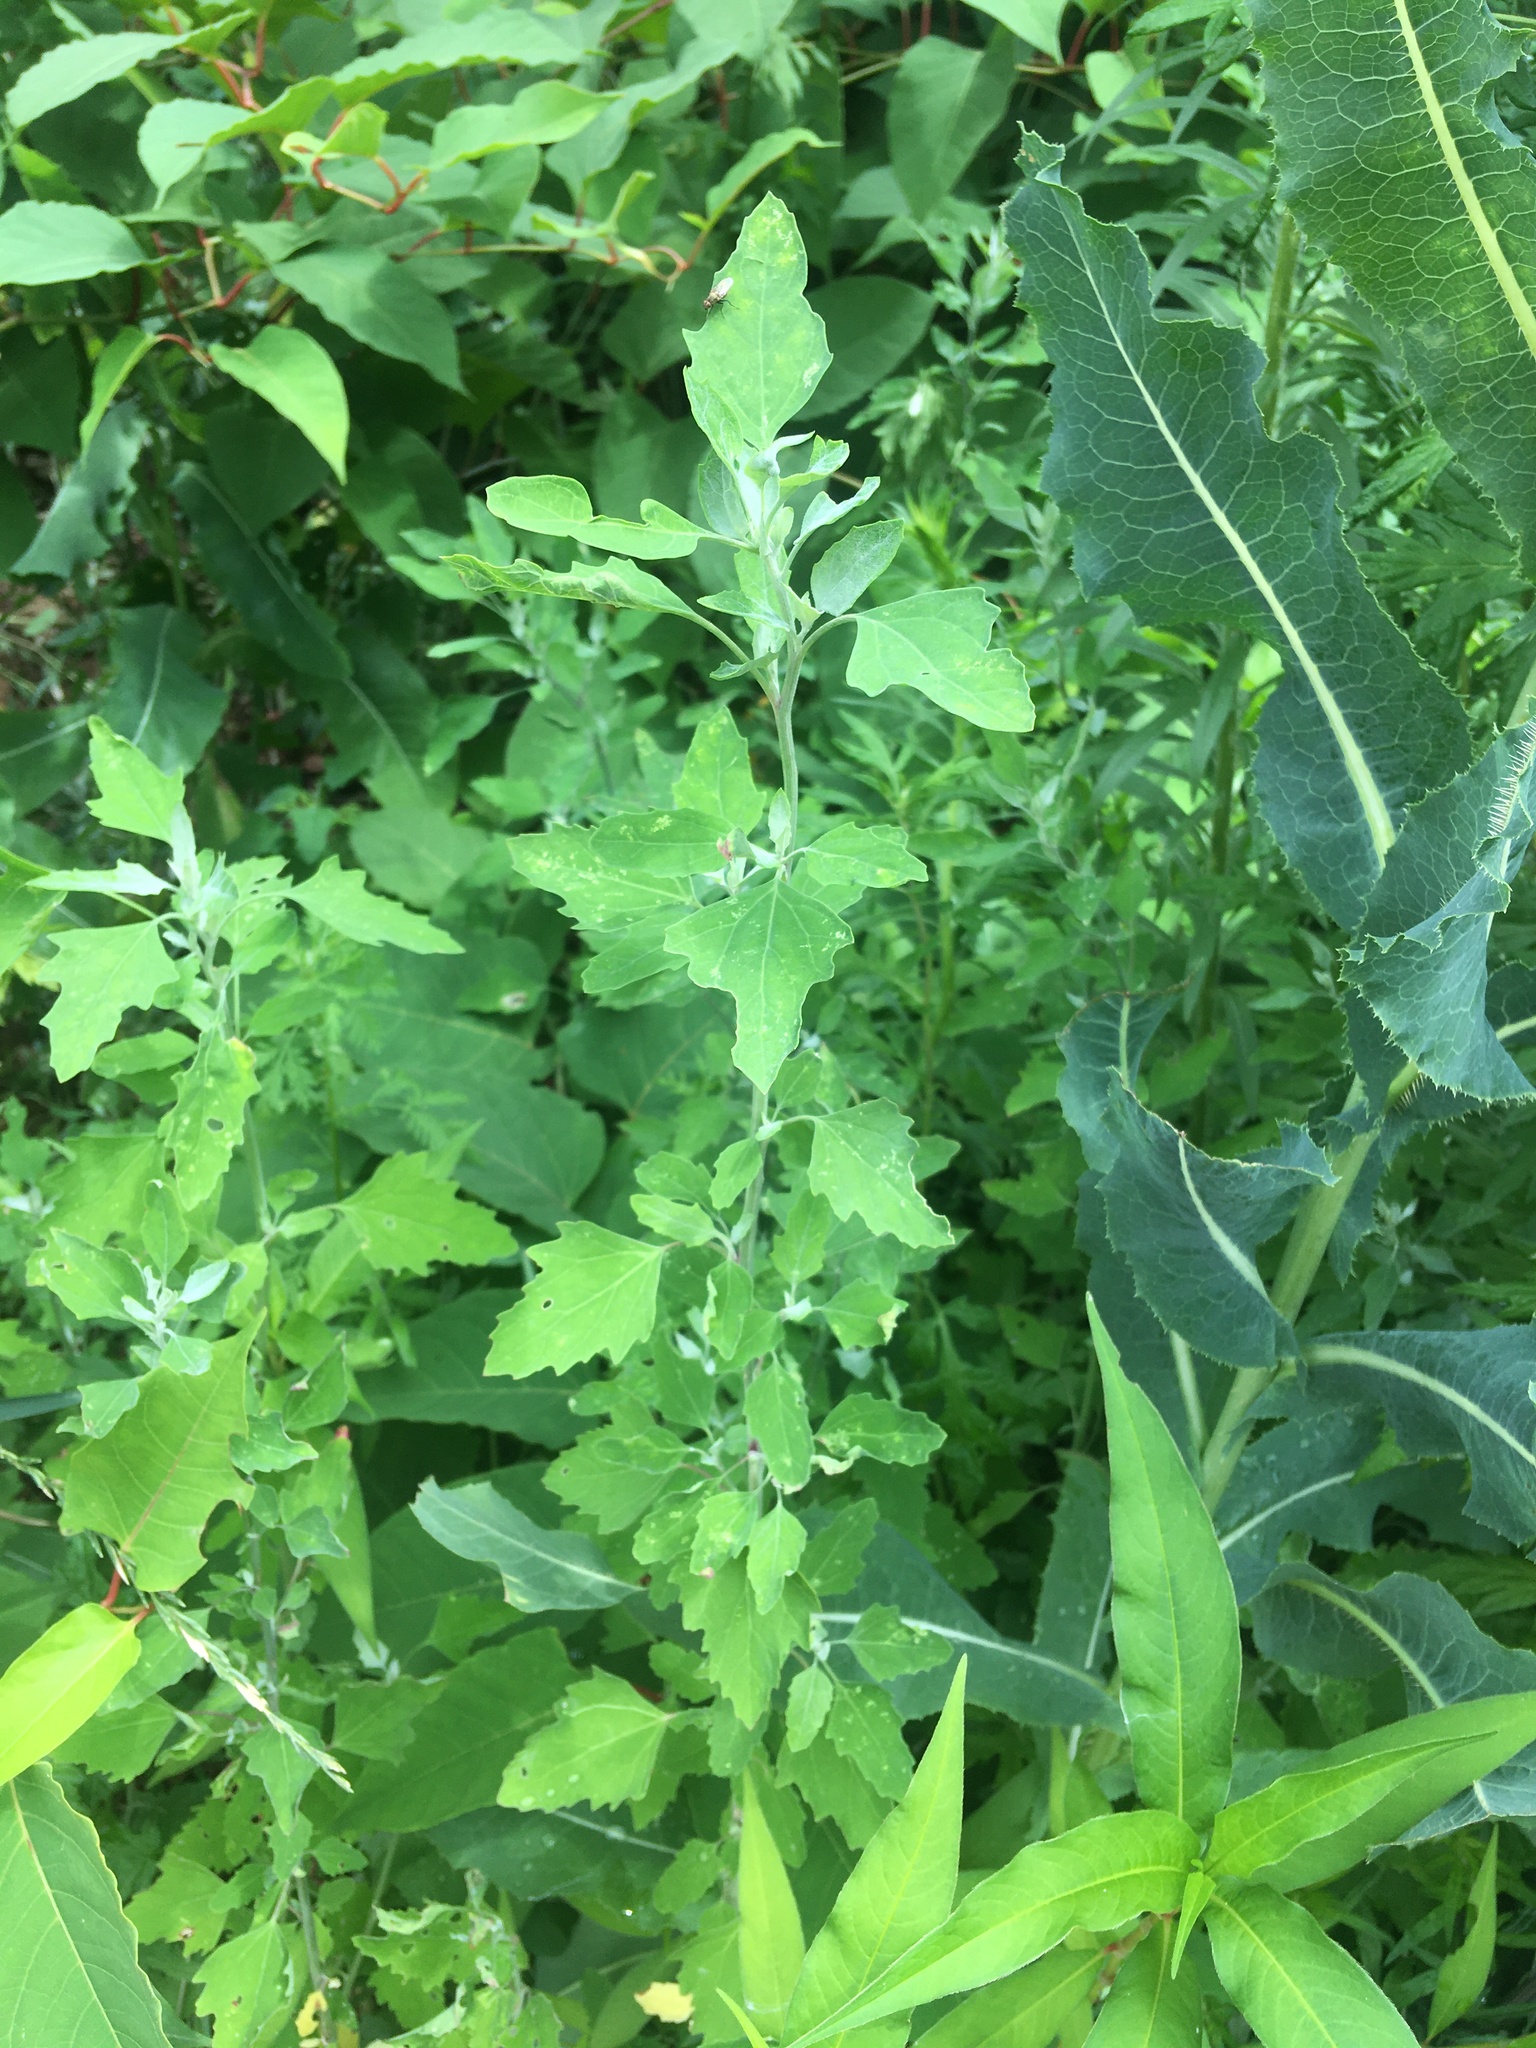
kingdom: Plantae
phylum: Tracheophyta
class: Magnoliopsida
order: Caryophyllales
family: Amaranthaceae
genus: Chenopodium
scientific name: Chenopodium album
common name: Fat-hen
